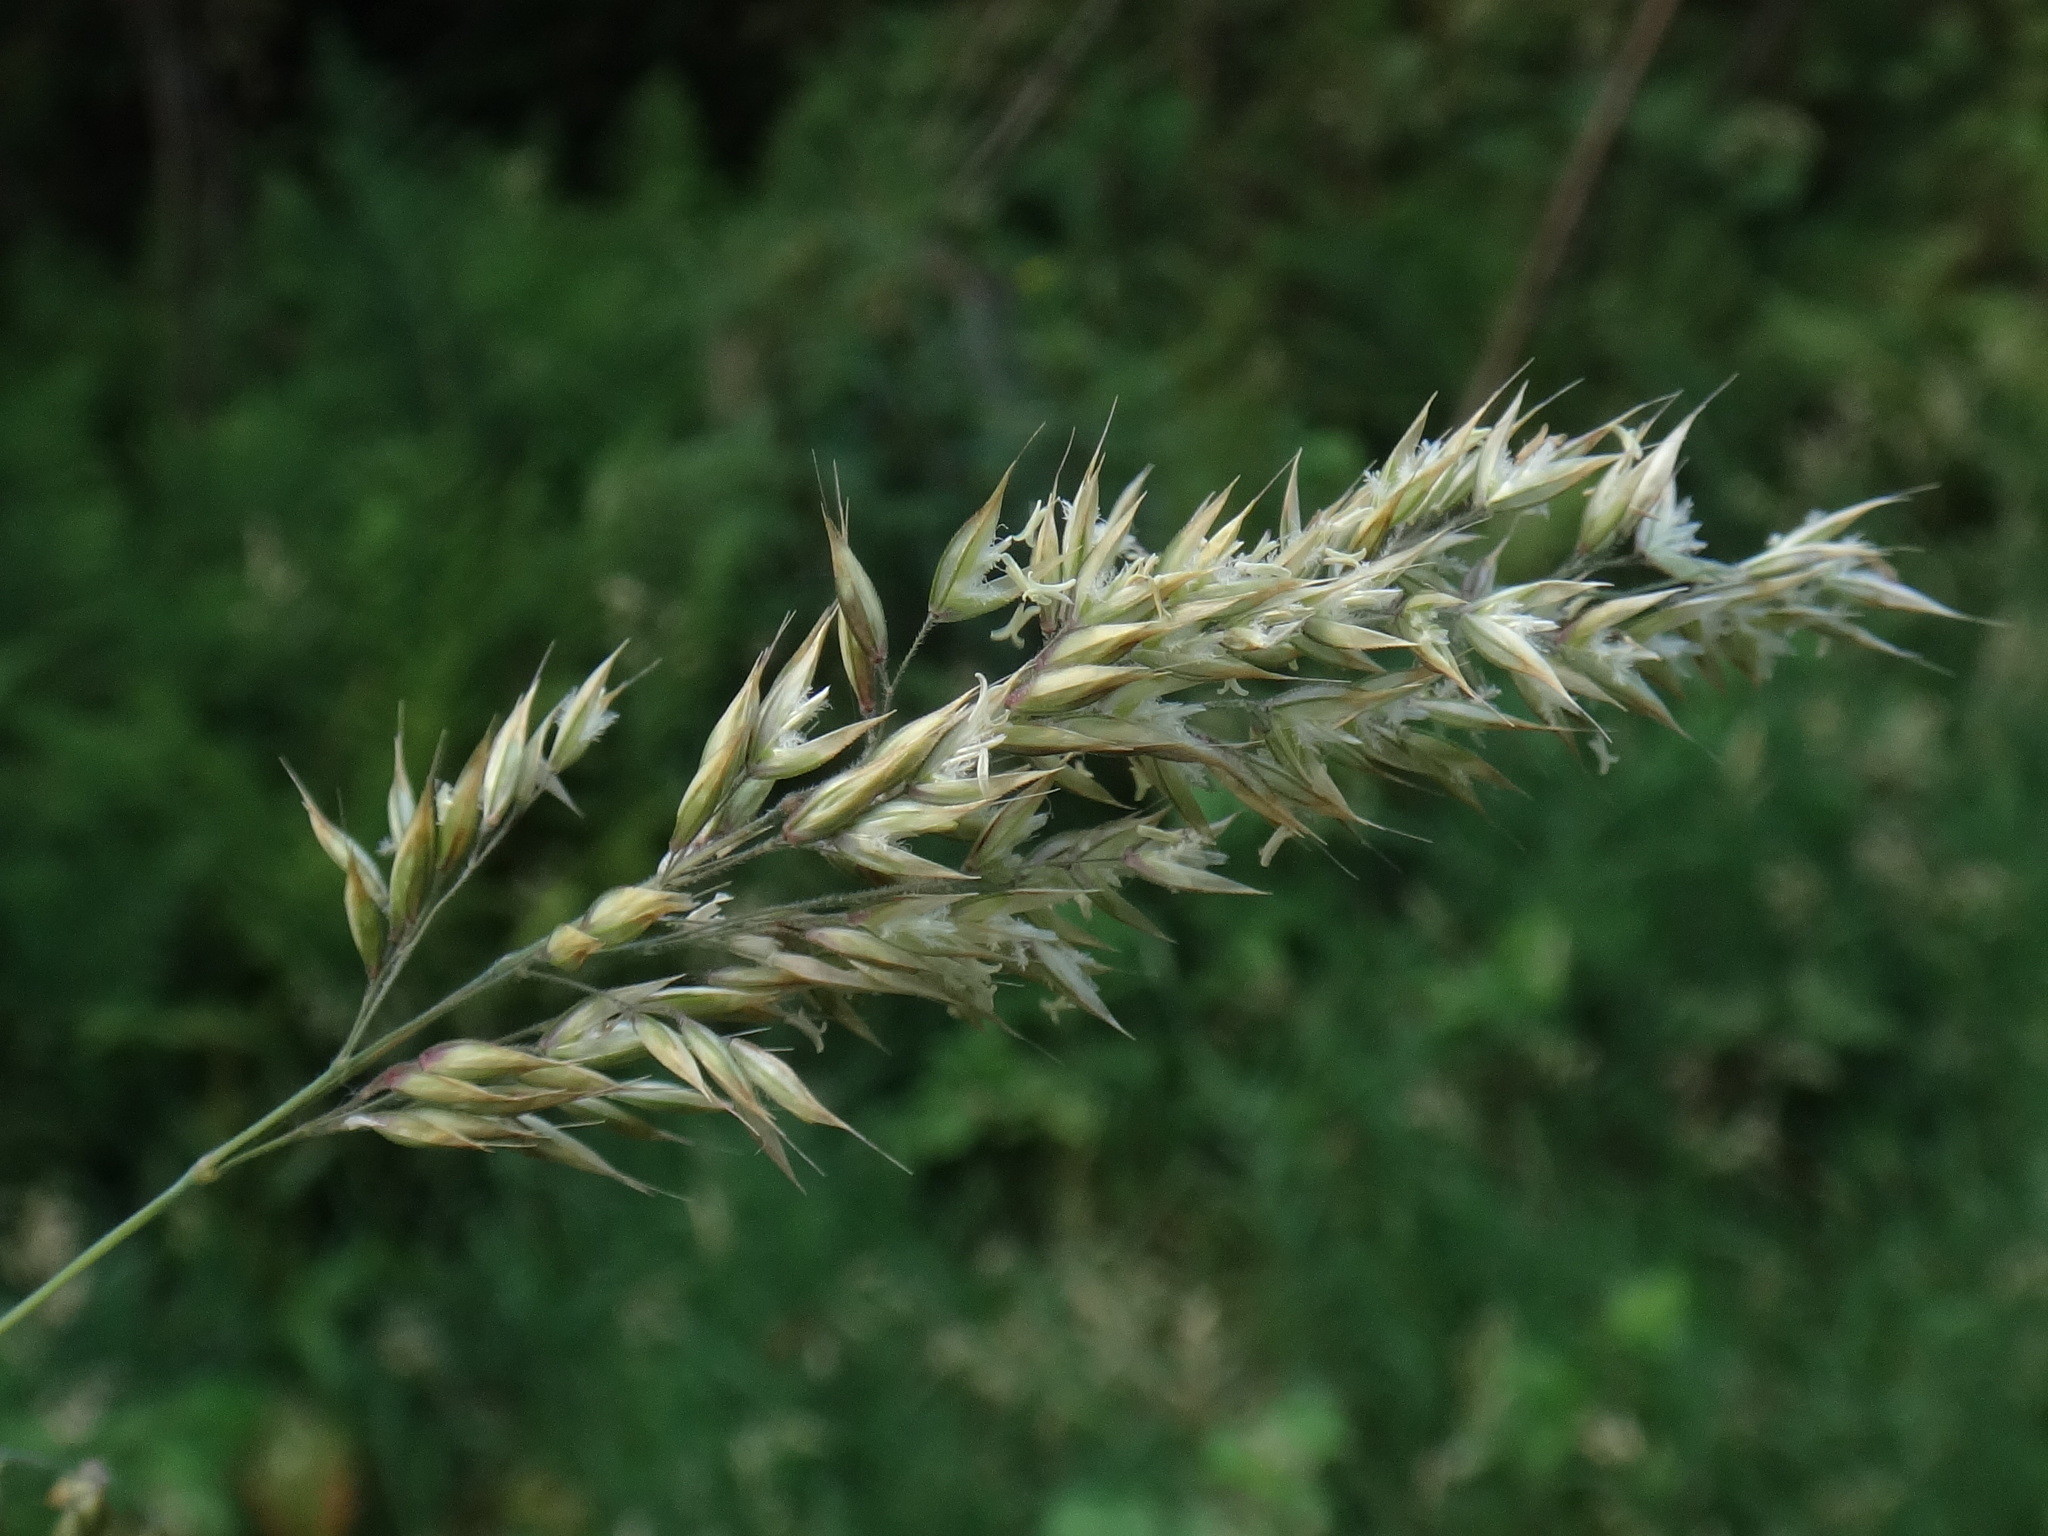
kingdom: Plantae
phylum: Tracheophyta
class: Liliopsida
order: Poales
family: Poaceae
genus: Holcus
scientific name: Holcus mollis
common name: Creeping velvetgrass
